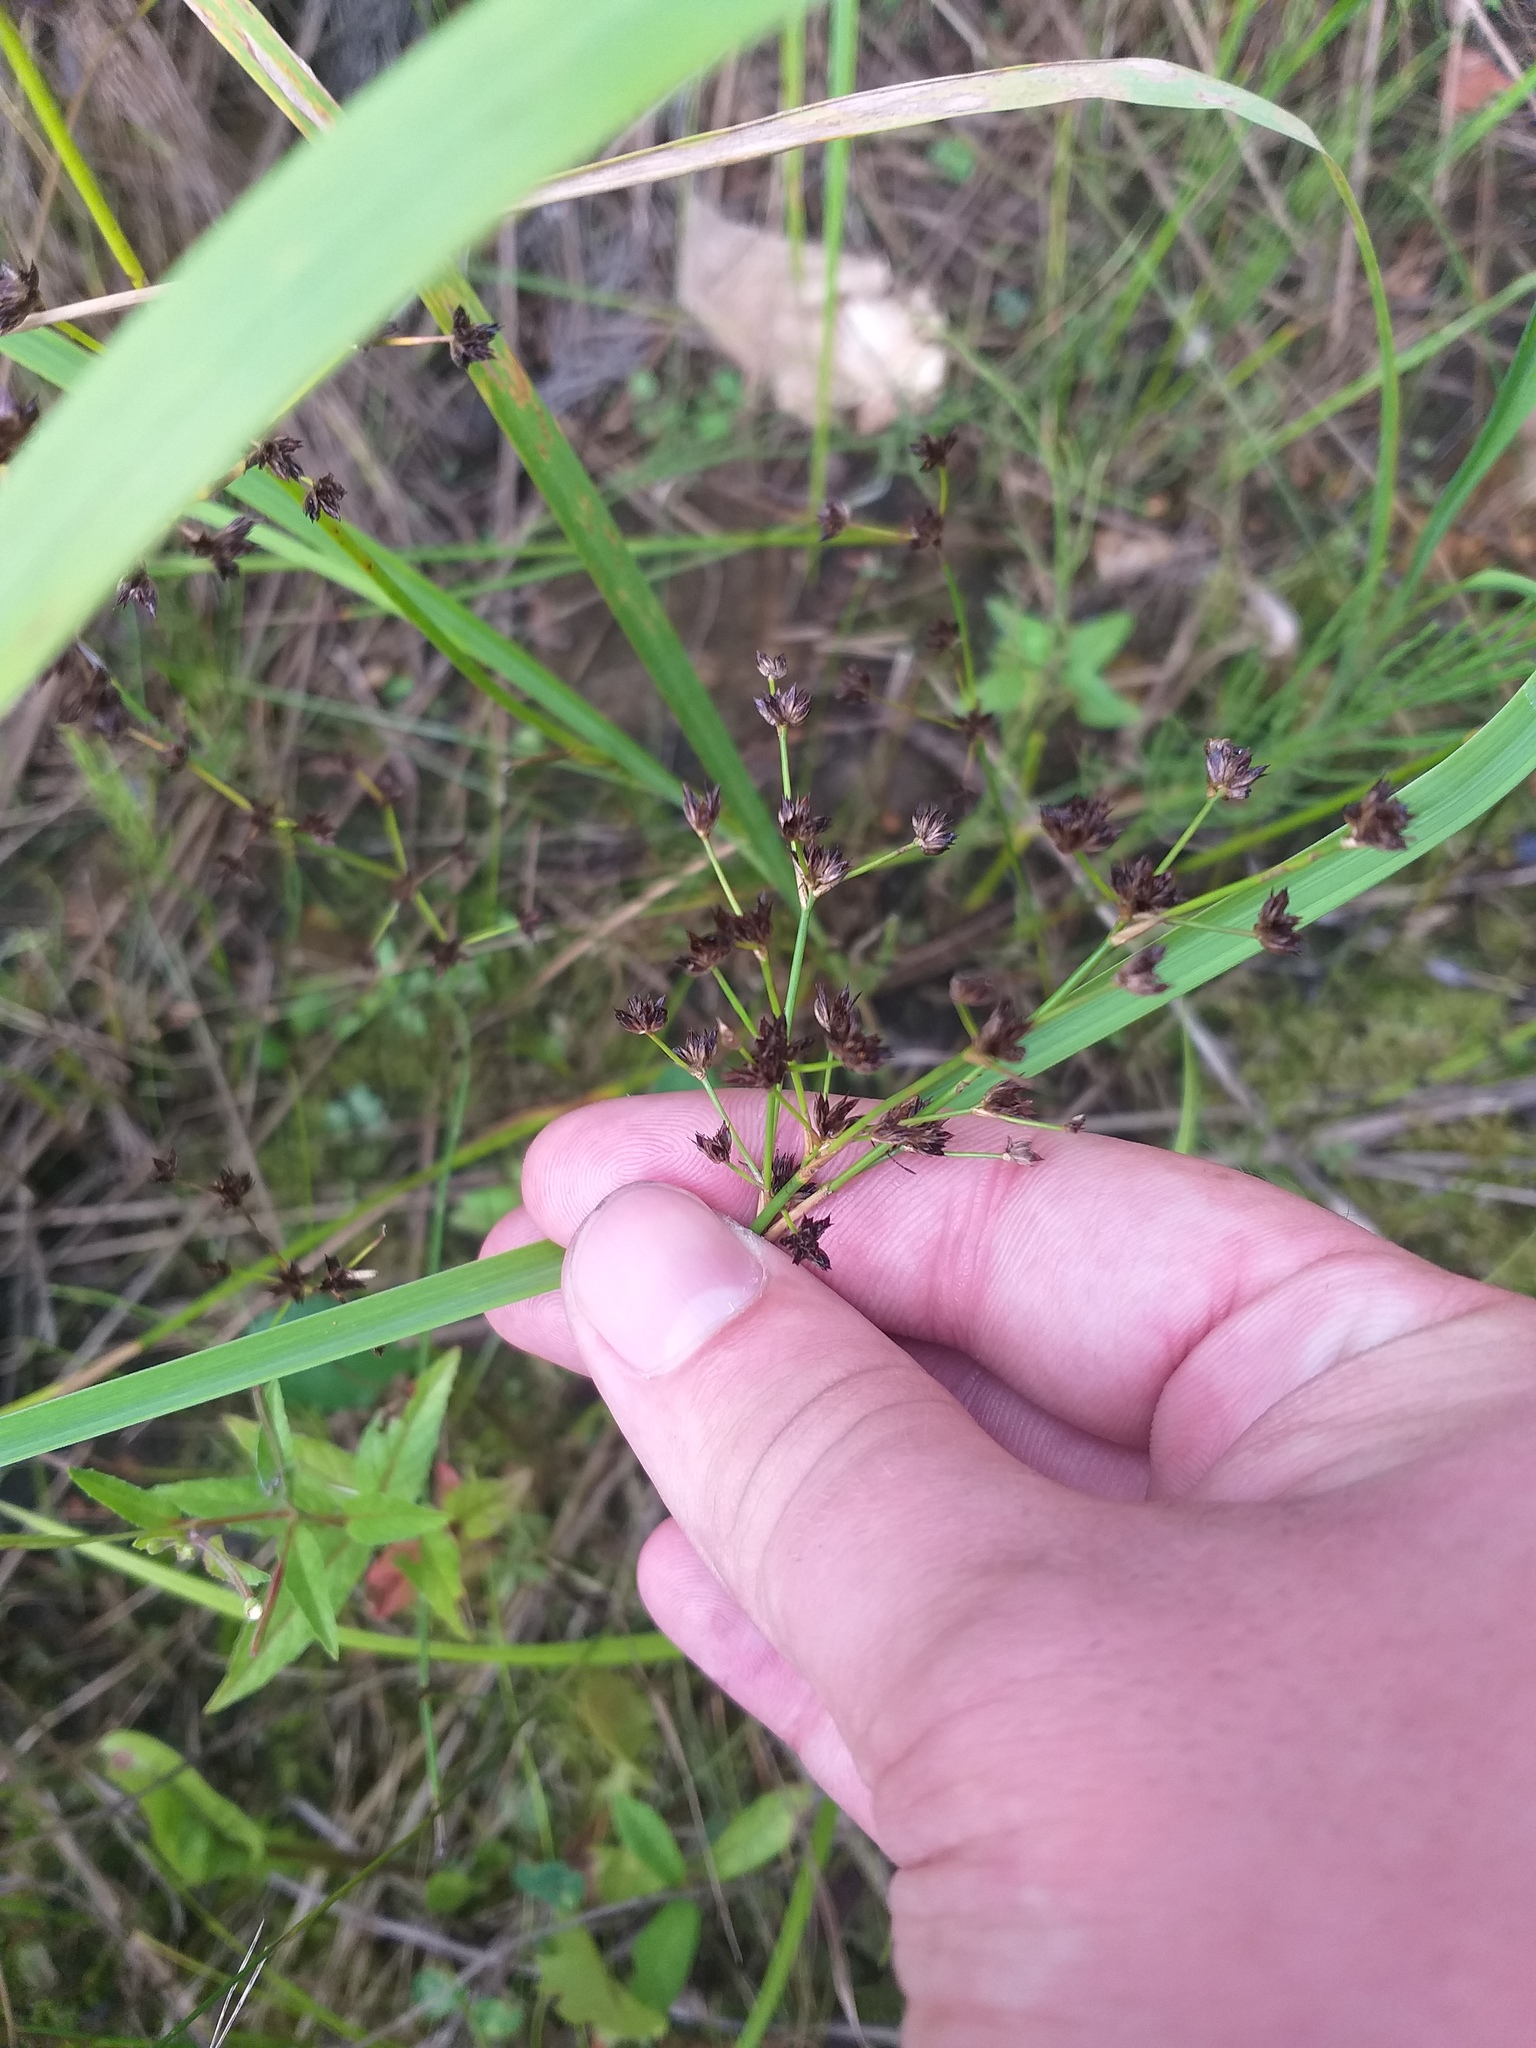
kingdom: Plantae
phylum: Tracheophyta
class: Liliopsida
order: Poales
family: Juncaceae
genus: Juncus
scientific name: Juncus articulatus
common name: Jointed rush
